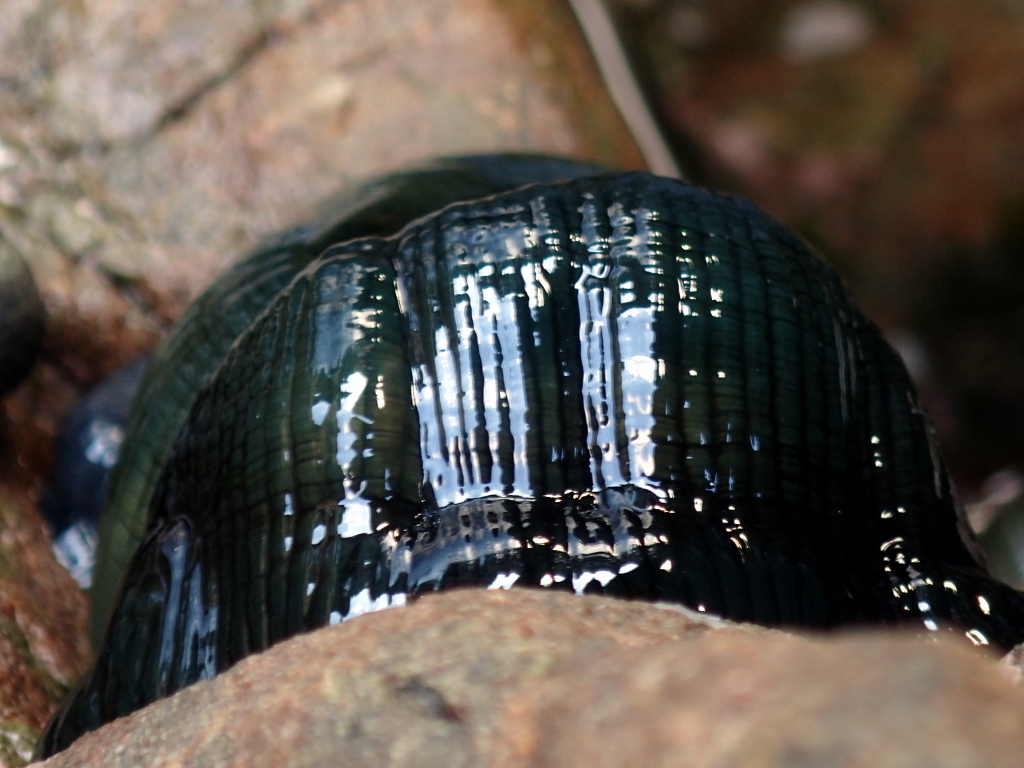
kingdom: Animalia
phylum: Cnidaria
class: Anthozoa
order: Actiniaria
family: Actiniidae
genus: Actinia
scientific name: Actinia tenebrosa
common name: Waratah anemone
